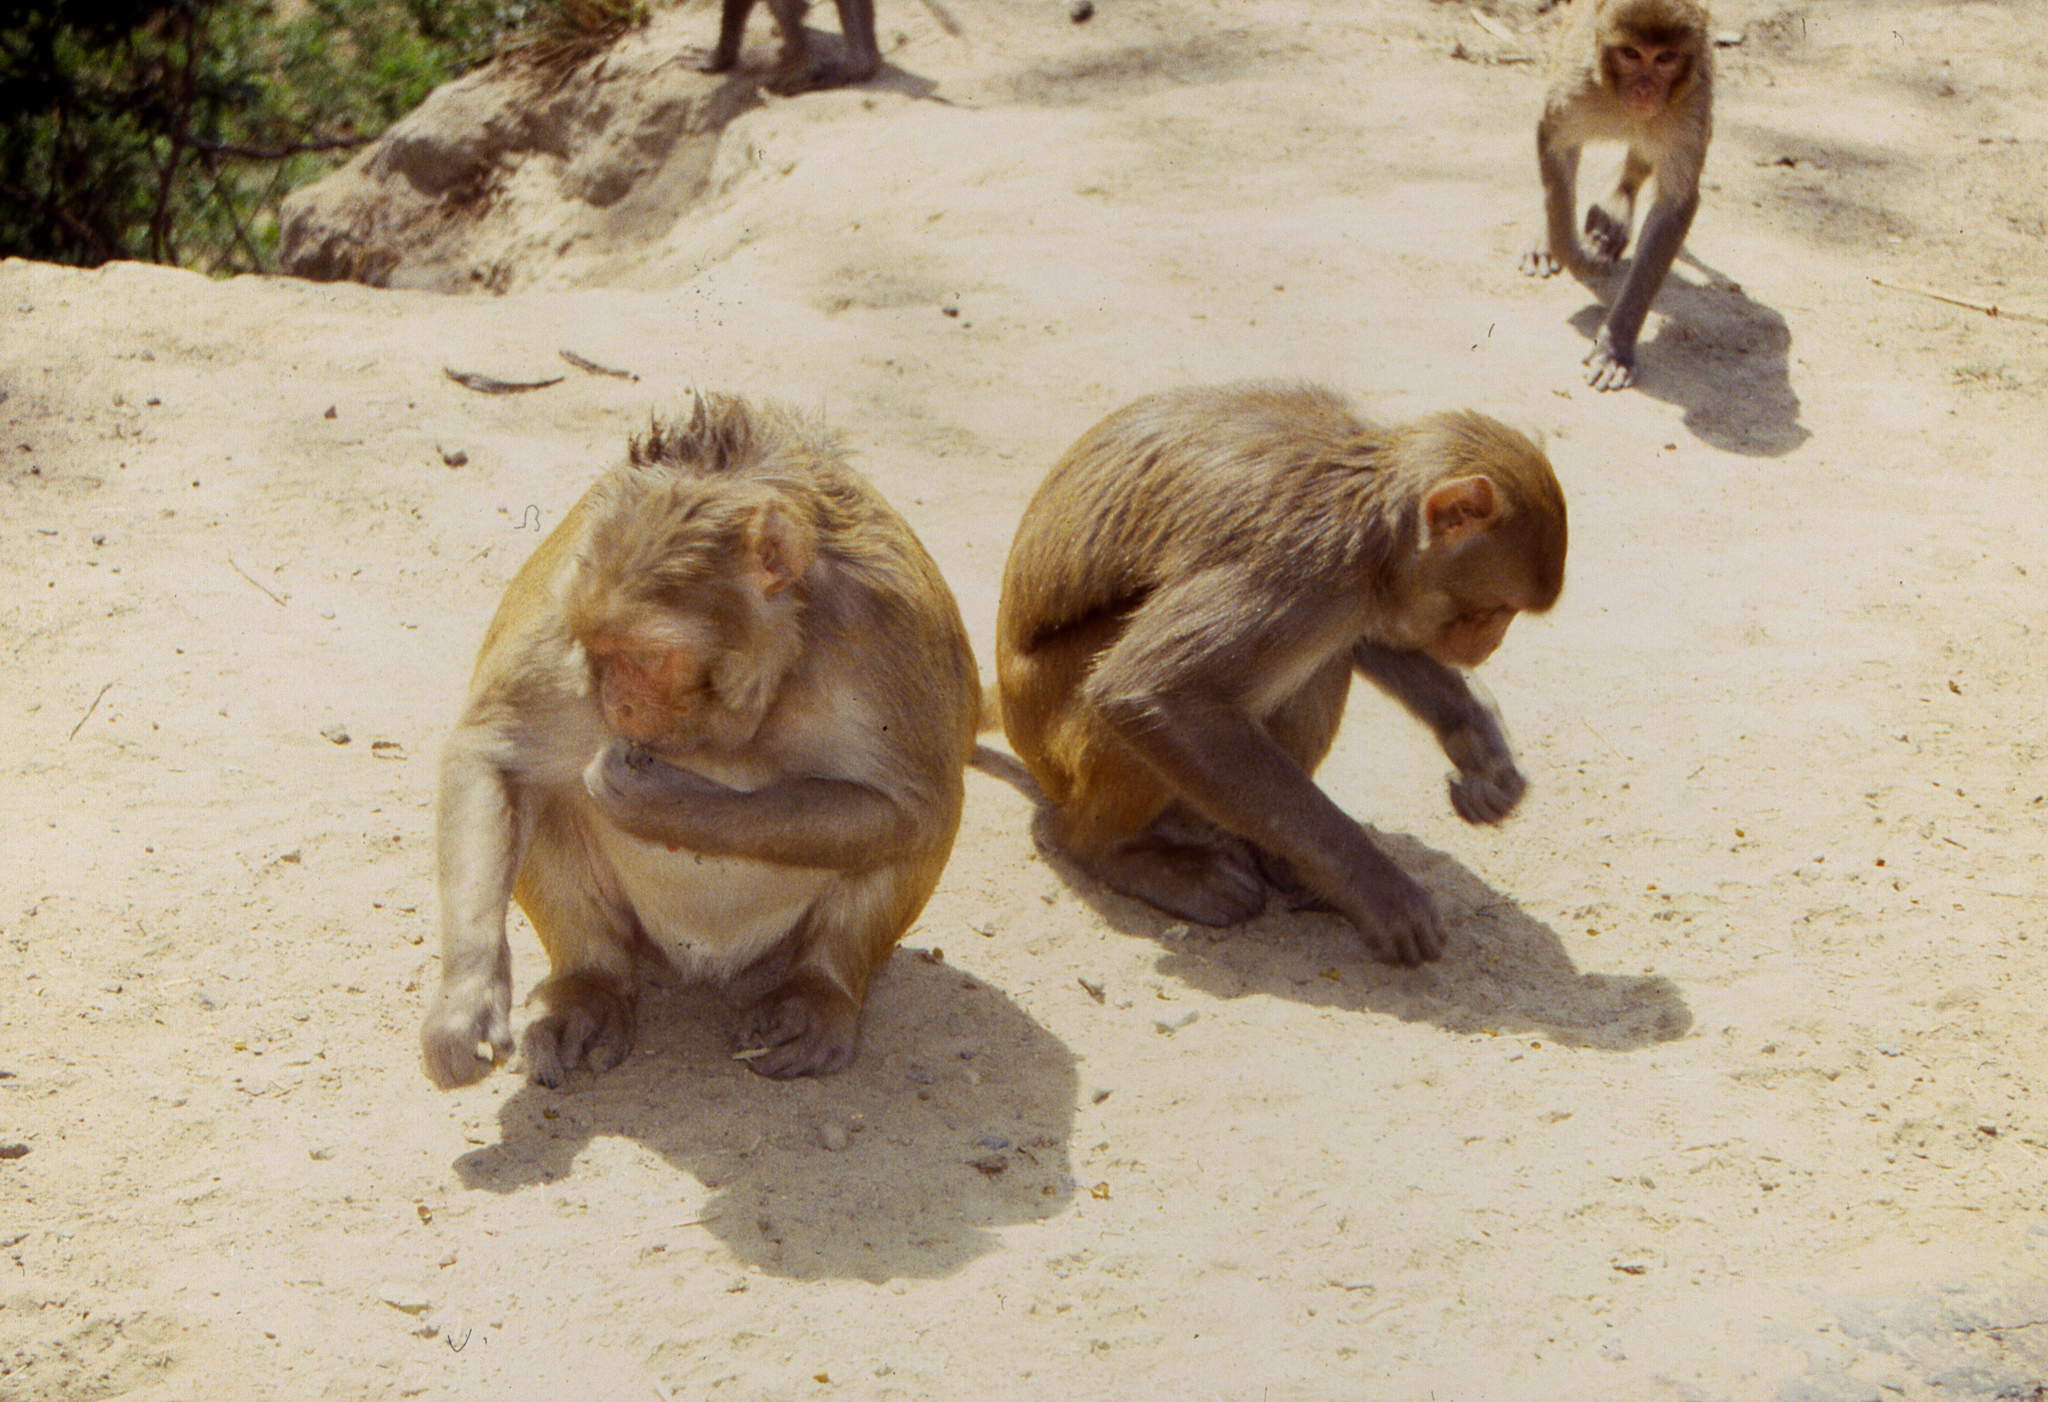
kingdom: Animalia
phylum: Chordata
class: Mammalia
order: Primates
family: Cercopithecidae
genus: Macaca
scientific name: Macaca mulatta
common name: Rhesus monkey
